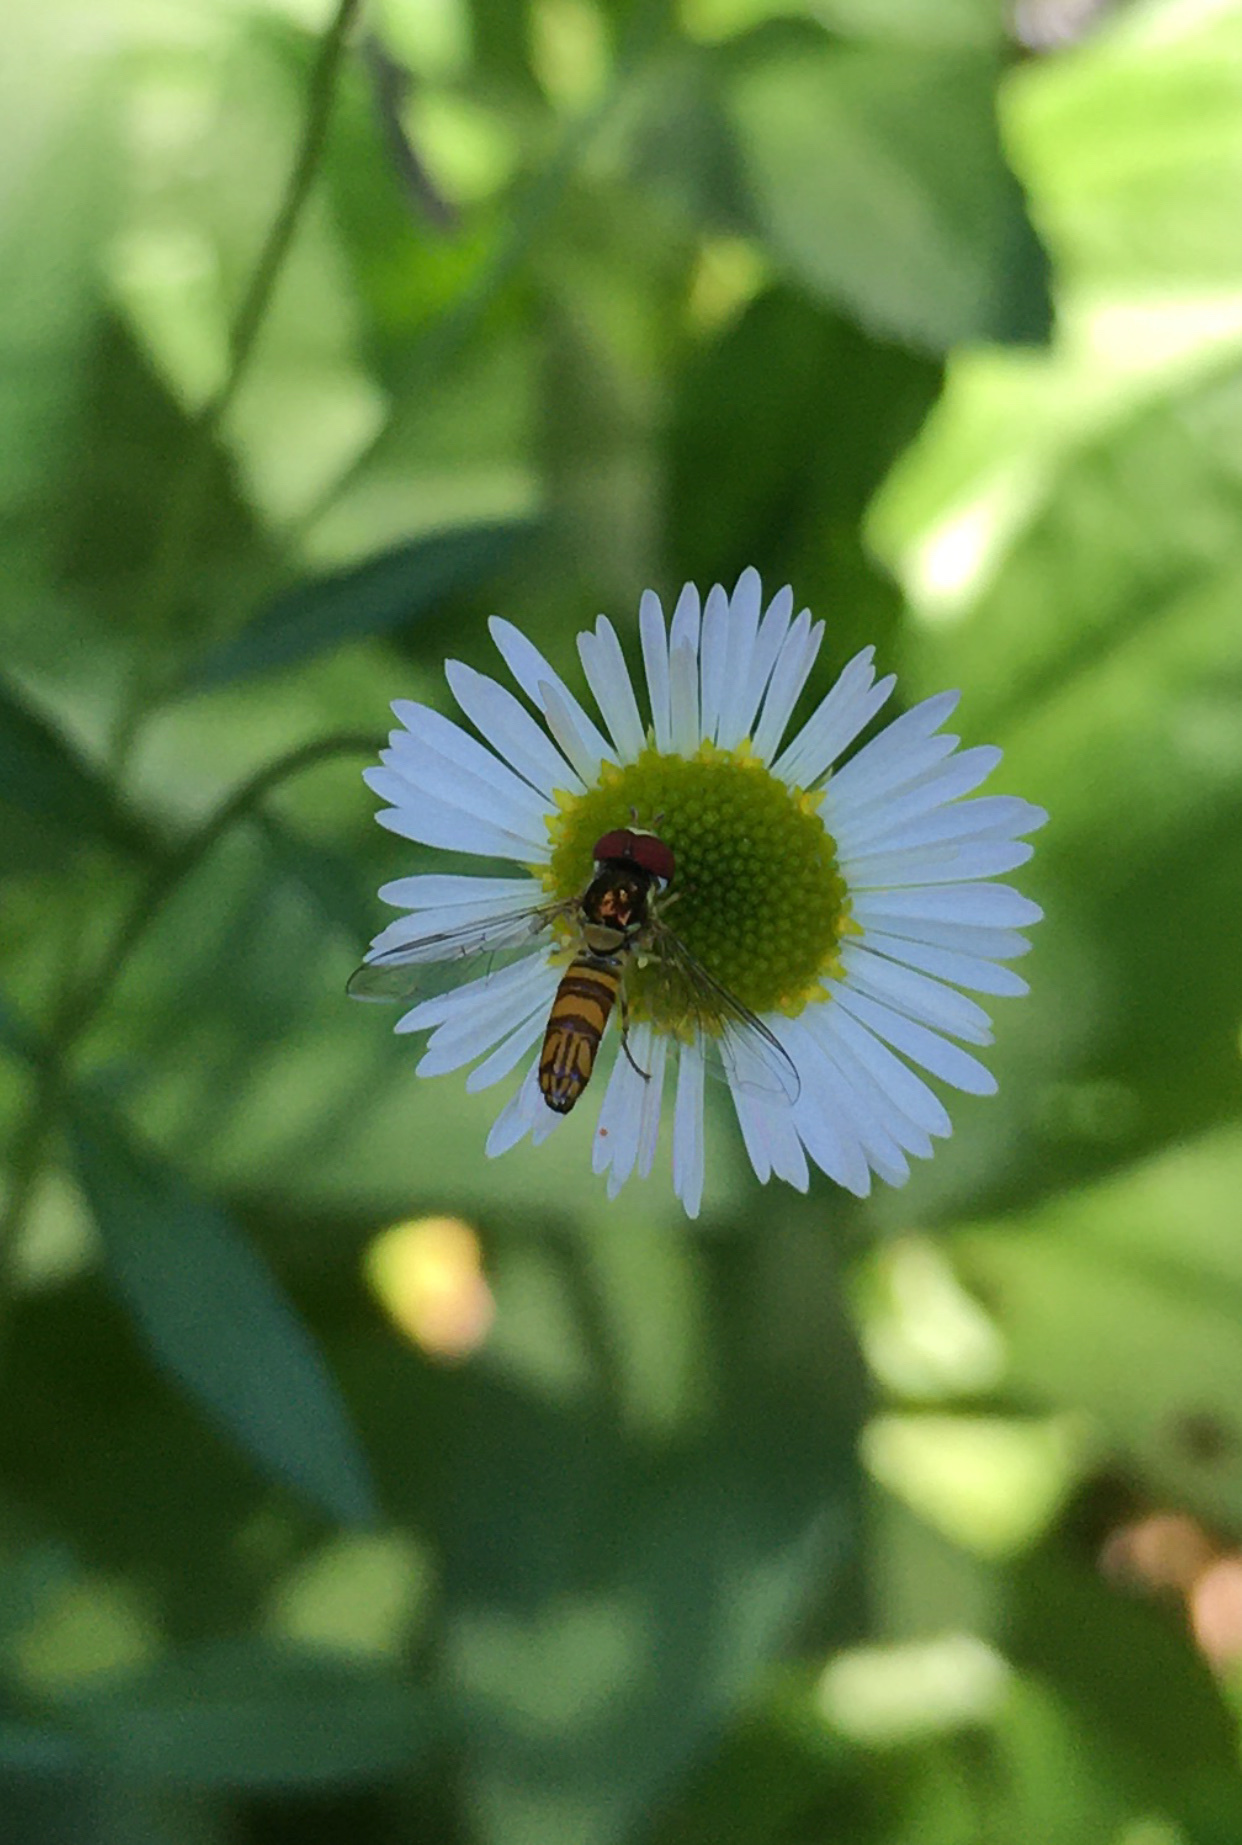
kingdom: Animalia
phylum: Arthropoda
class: Insecta
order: Diptera
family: Syrphidae
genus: Allograpta
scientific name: Allograpta obliqua
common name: Common oblique syrphid
